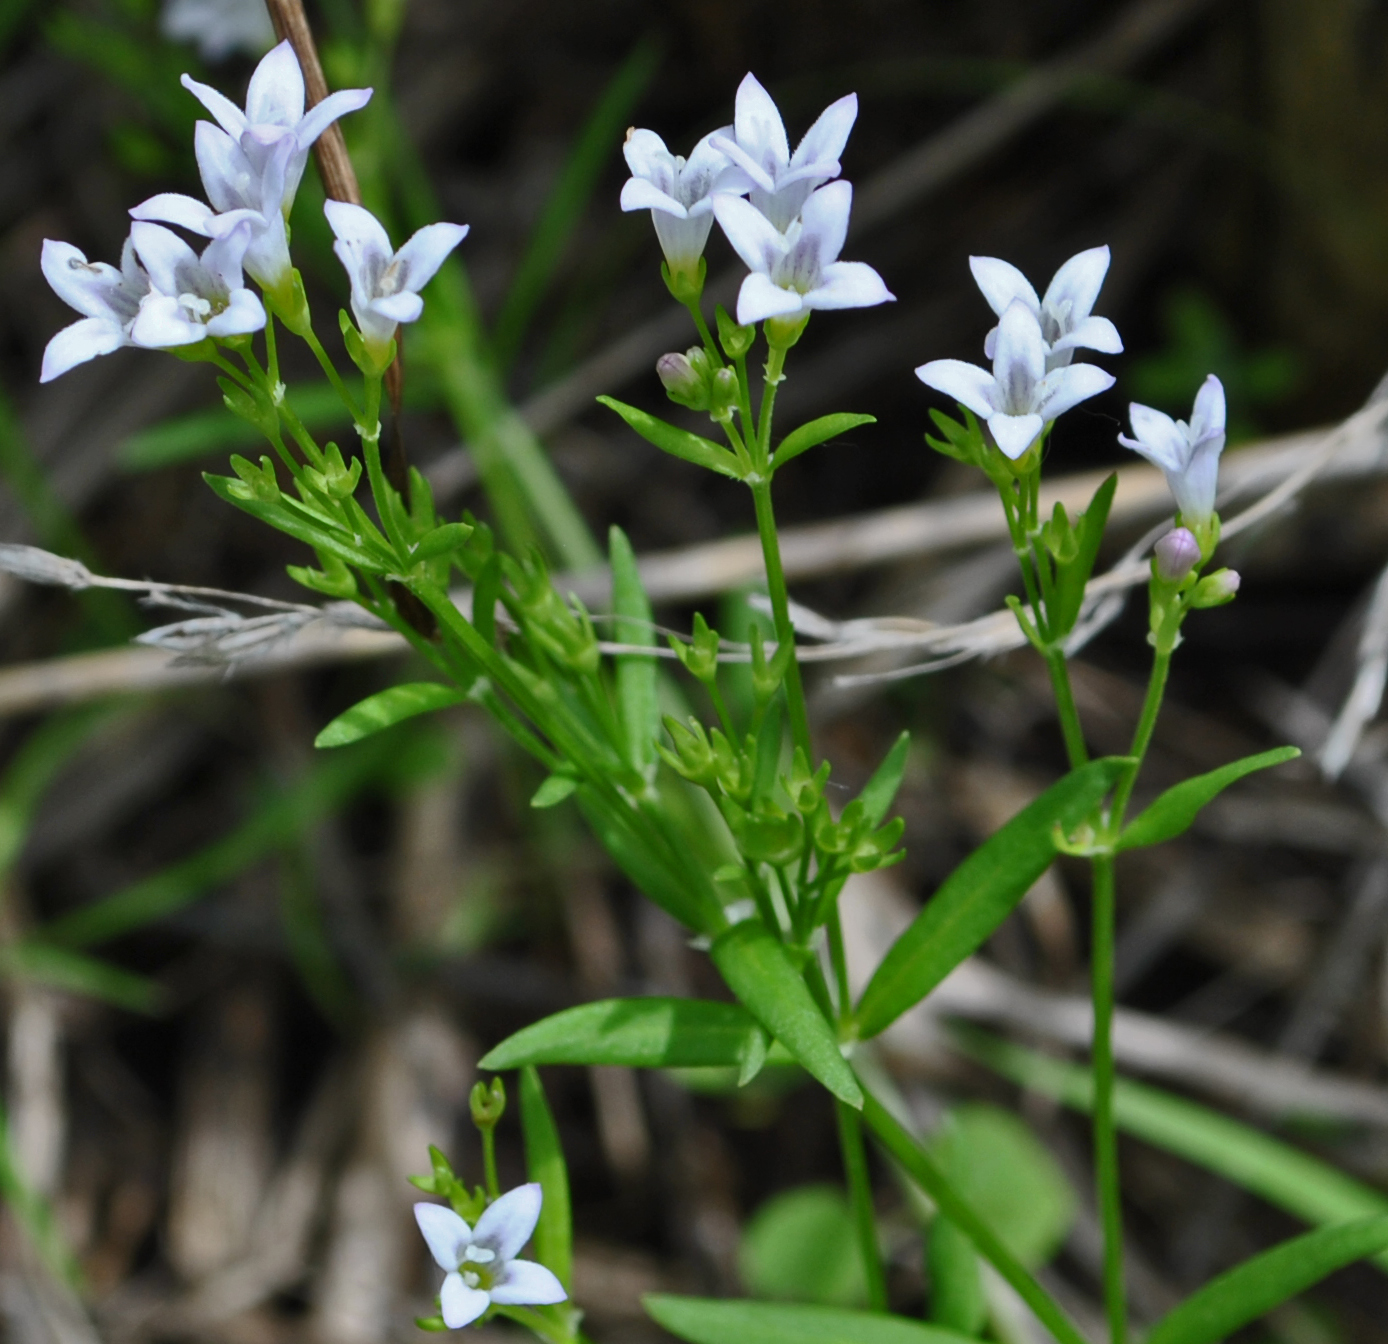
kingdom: Plantae
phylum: Tracheophyta
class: Magnoliopsida
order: Gentianales
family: Rubiaceae
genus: Houstonia
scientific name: Houstonia longifolia
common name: Long-leaved bluets
